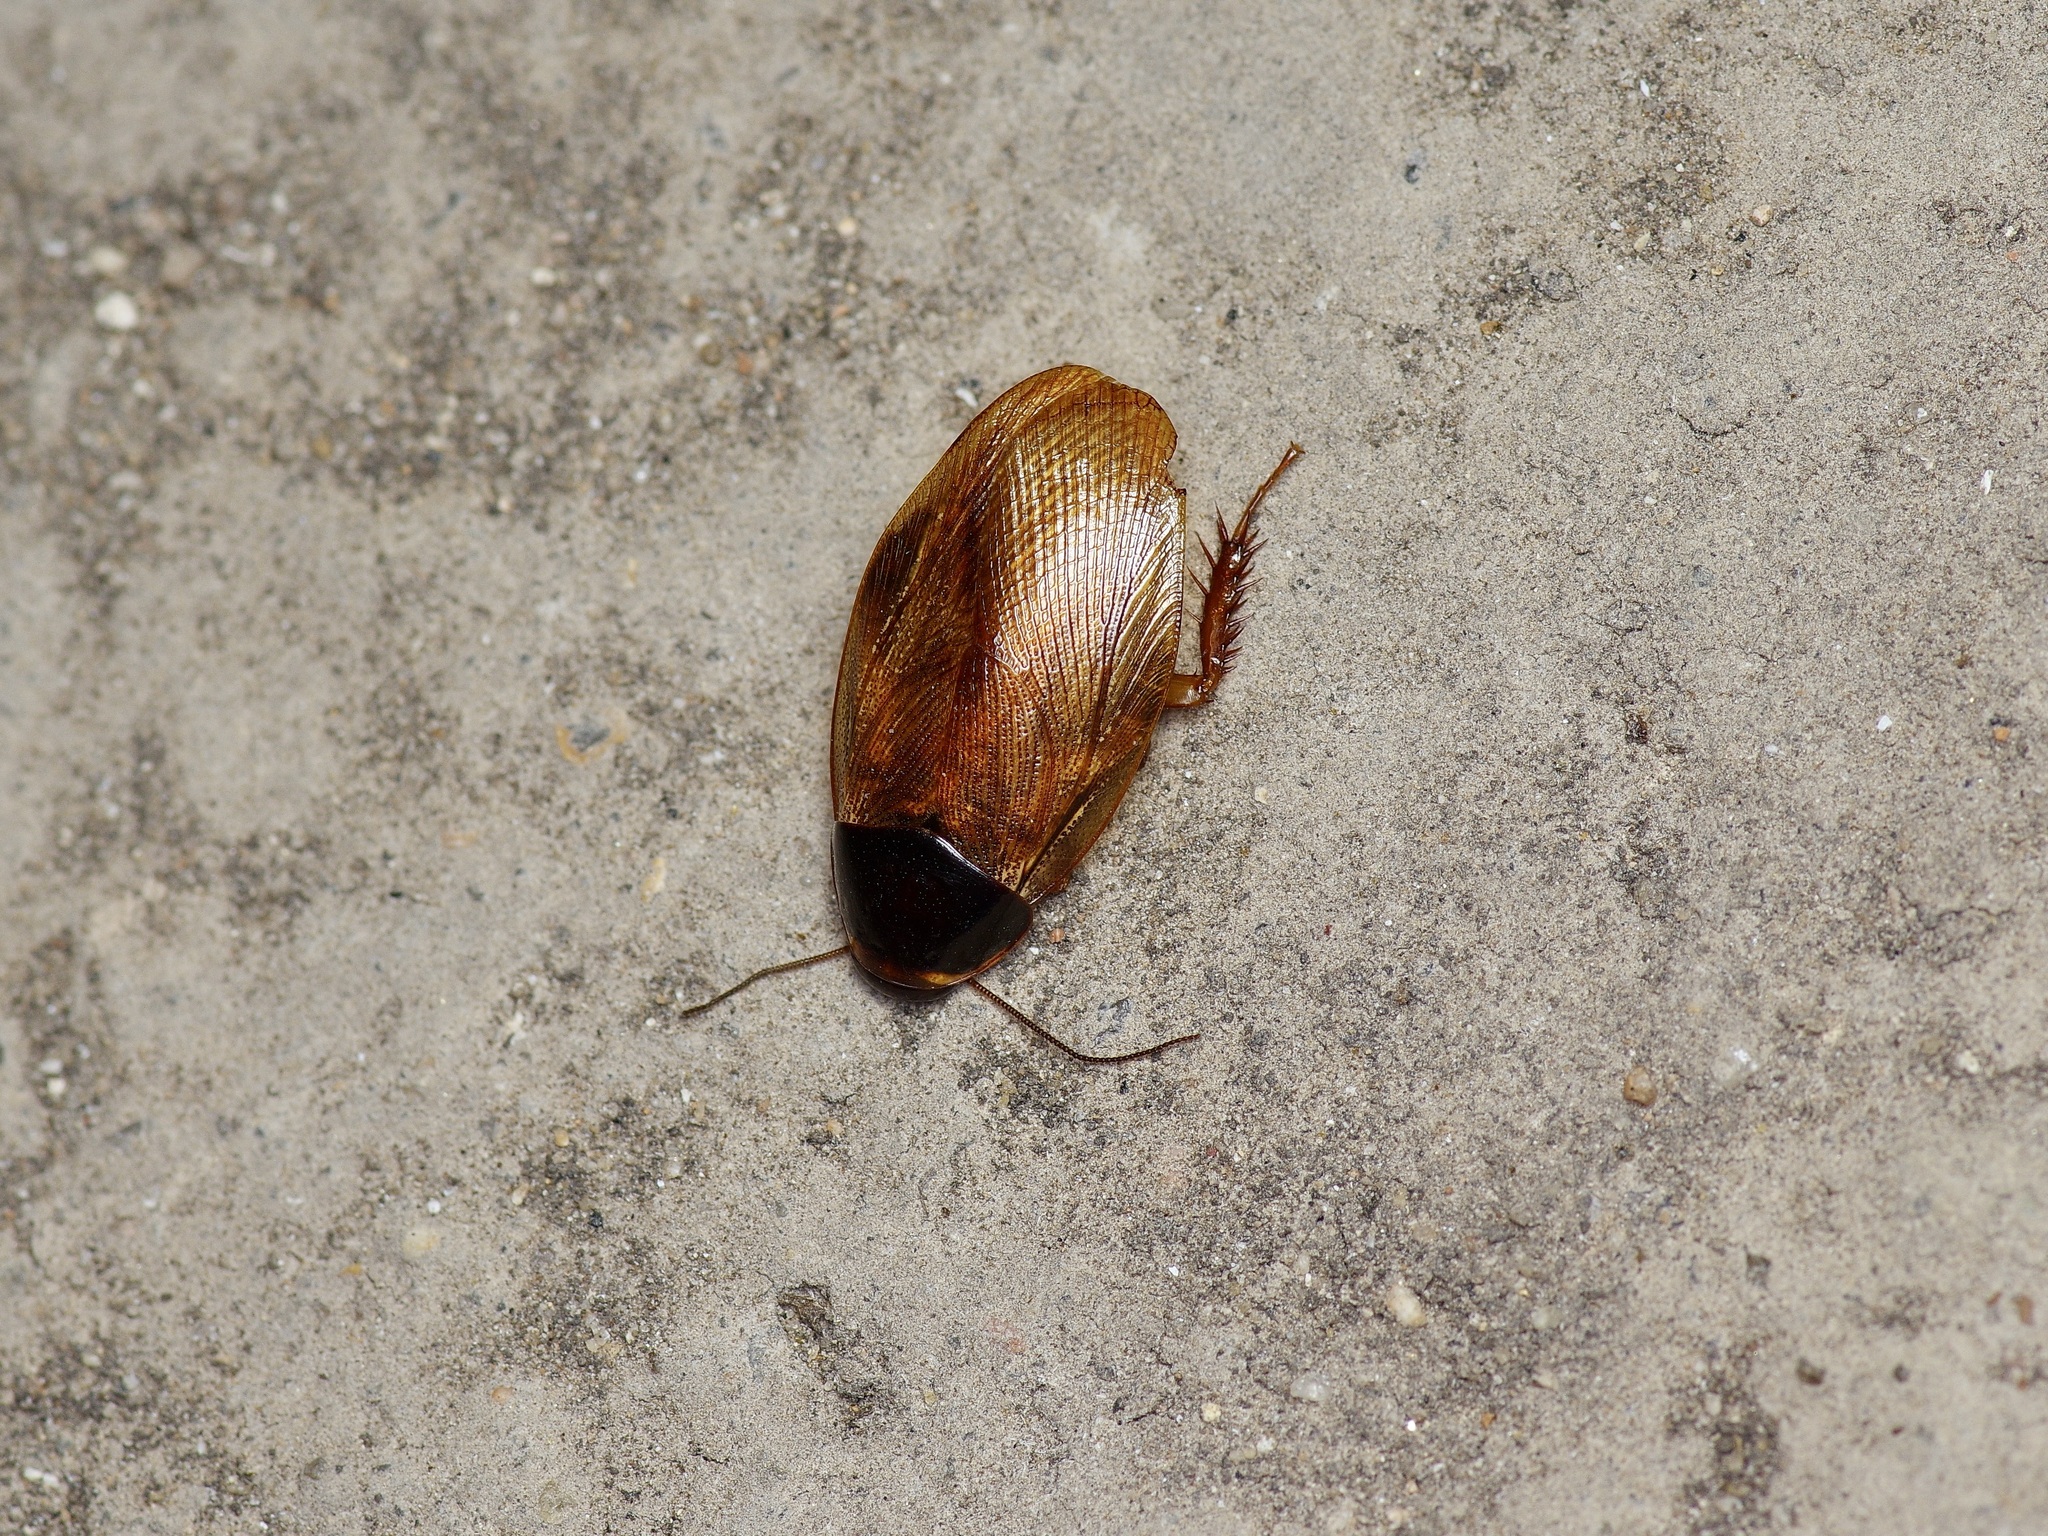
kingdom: Animalia
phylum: Arthropoda
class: Insecta
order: Blattodea
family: Blaberidae
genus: Pycnoscelus
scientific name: Pycnoscelus surinamensis
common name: Surinam cockroach
